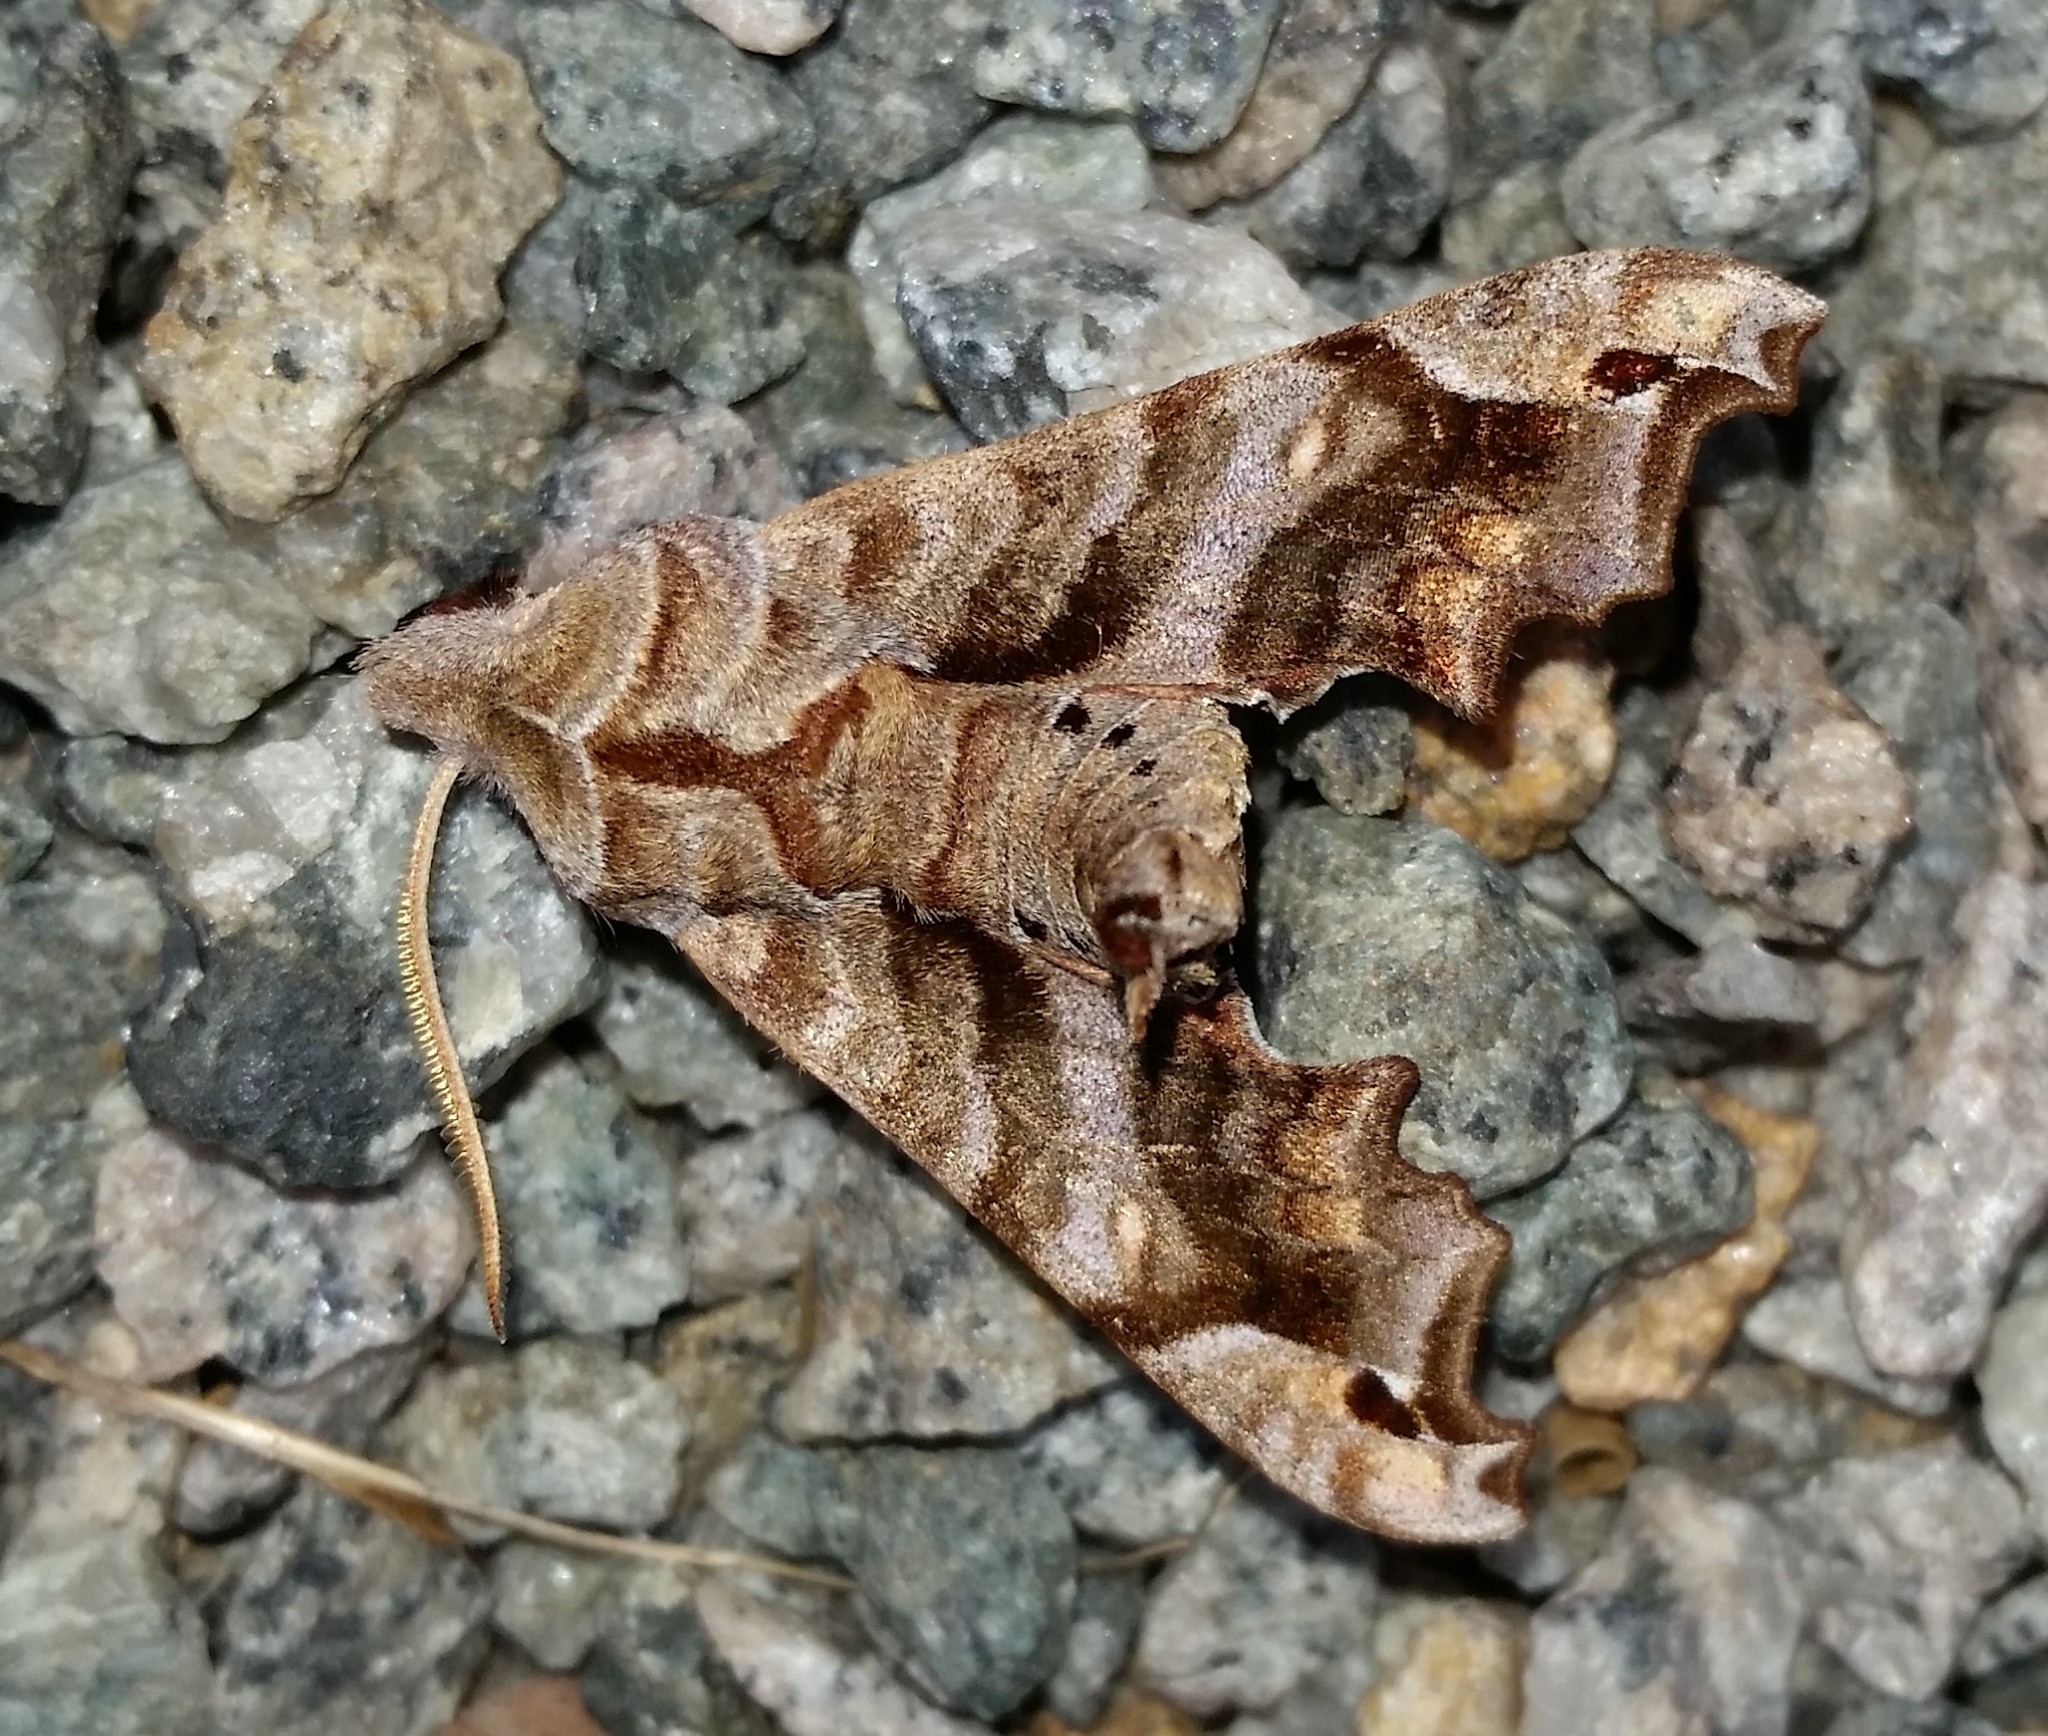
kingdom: Animalia
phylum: Arthropoda
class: Insecta
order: Lepidoptera
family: Sphingidae
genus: Deidamia
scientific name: Deidamia inscriptum
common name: Lettered sphinx
